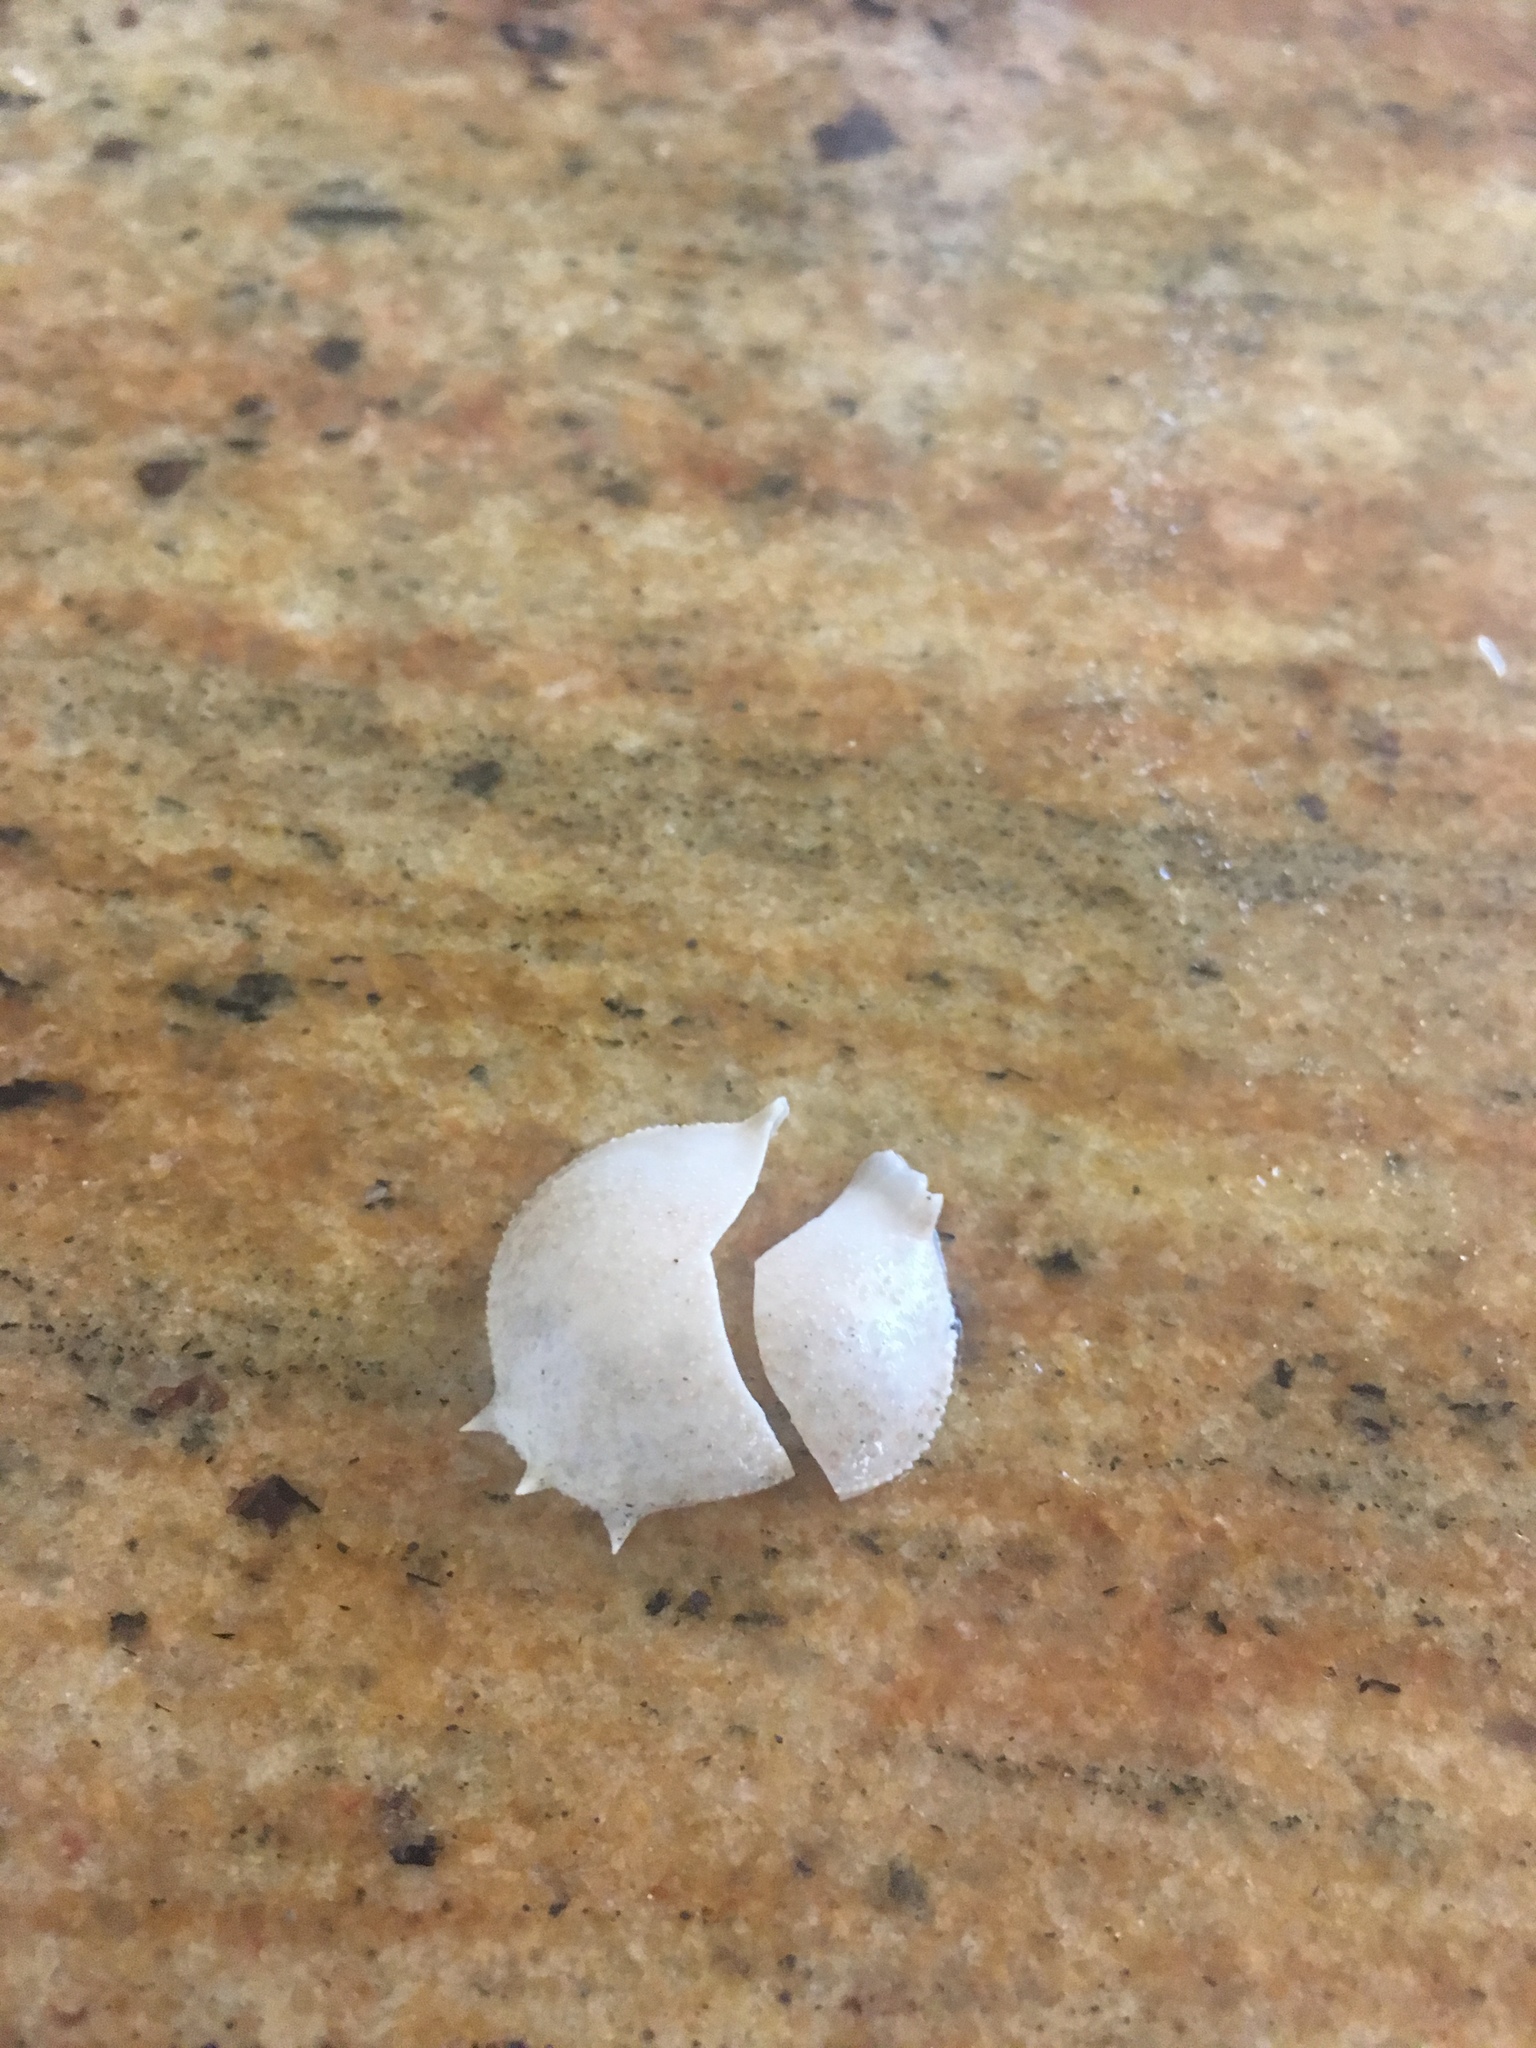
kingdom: Animalia
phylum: Arthropoda
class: Malacostraca
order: Decapoda
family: Leucosiidae
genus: Persephona
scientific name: Persephona aquilonaris
